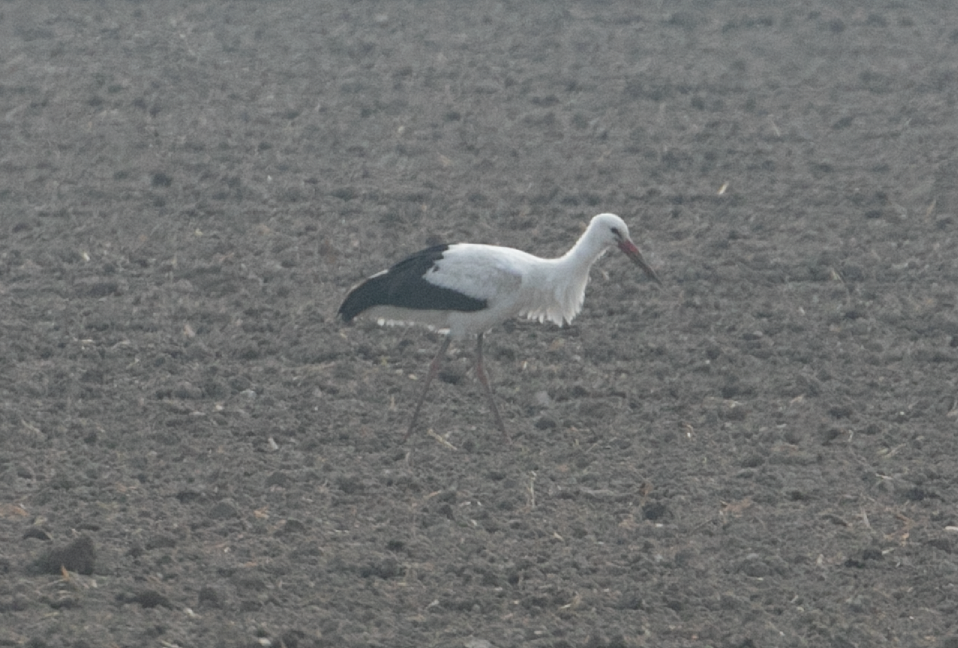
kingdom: Animalia
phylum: Chordata
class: Aves
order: Ciconiiformes
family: Ciconiidae
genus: Ciconia
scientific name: Ciconia ciconia
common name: White stork
